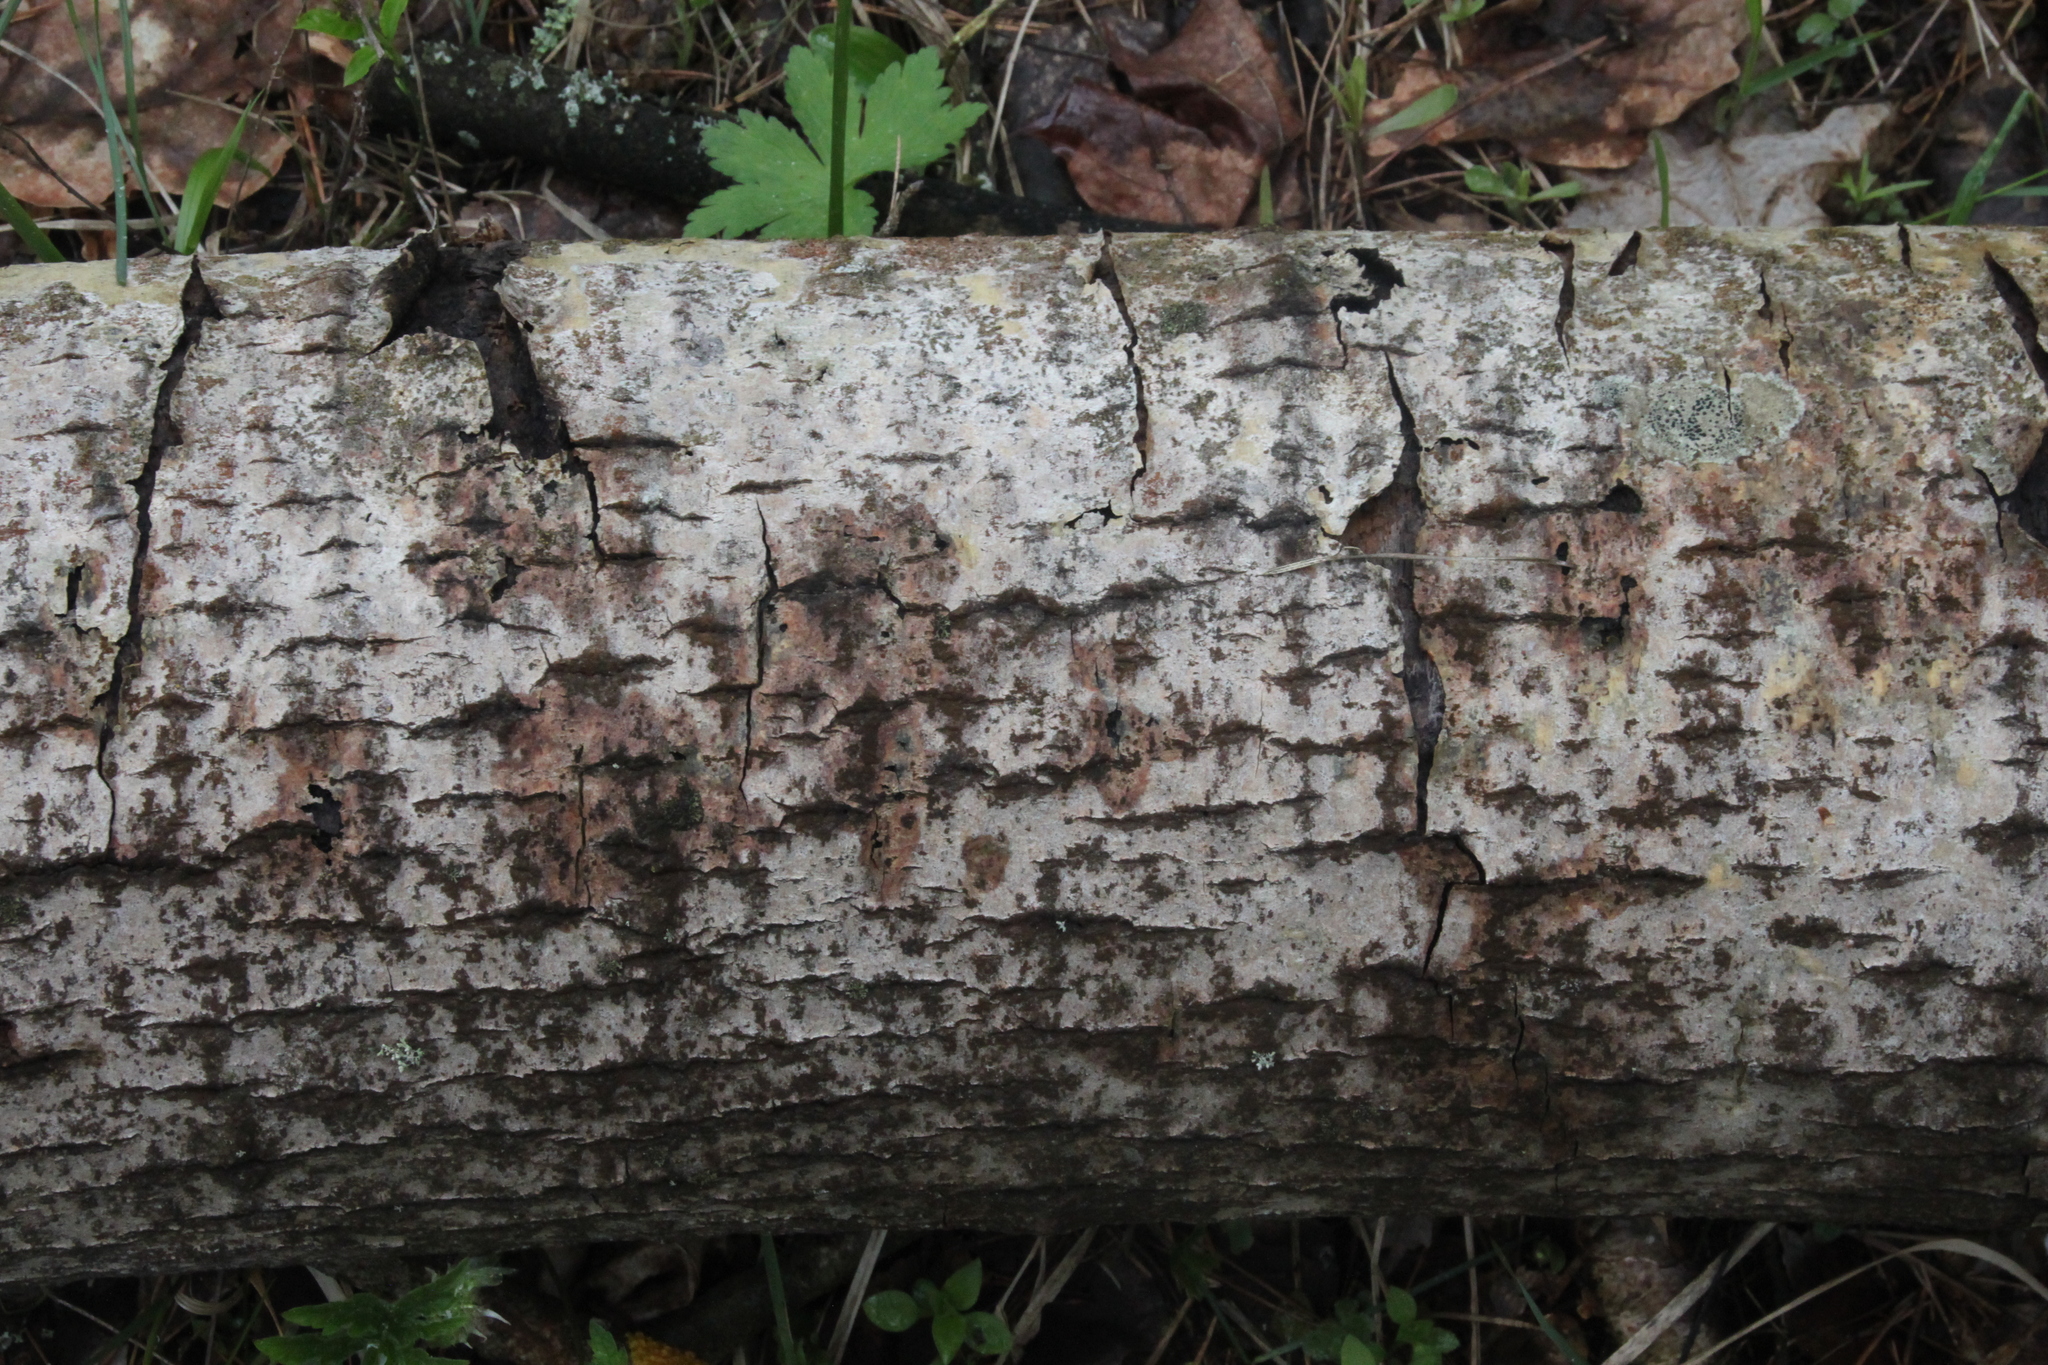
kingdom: Plantae
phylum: Tracheophyta
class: Magnoliopsida
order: Malpighiales
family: Salicaceae
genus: Populus
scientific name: Populus tremula
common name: European aspen
